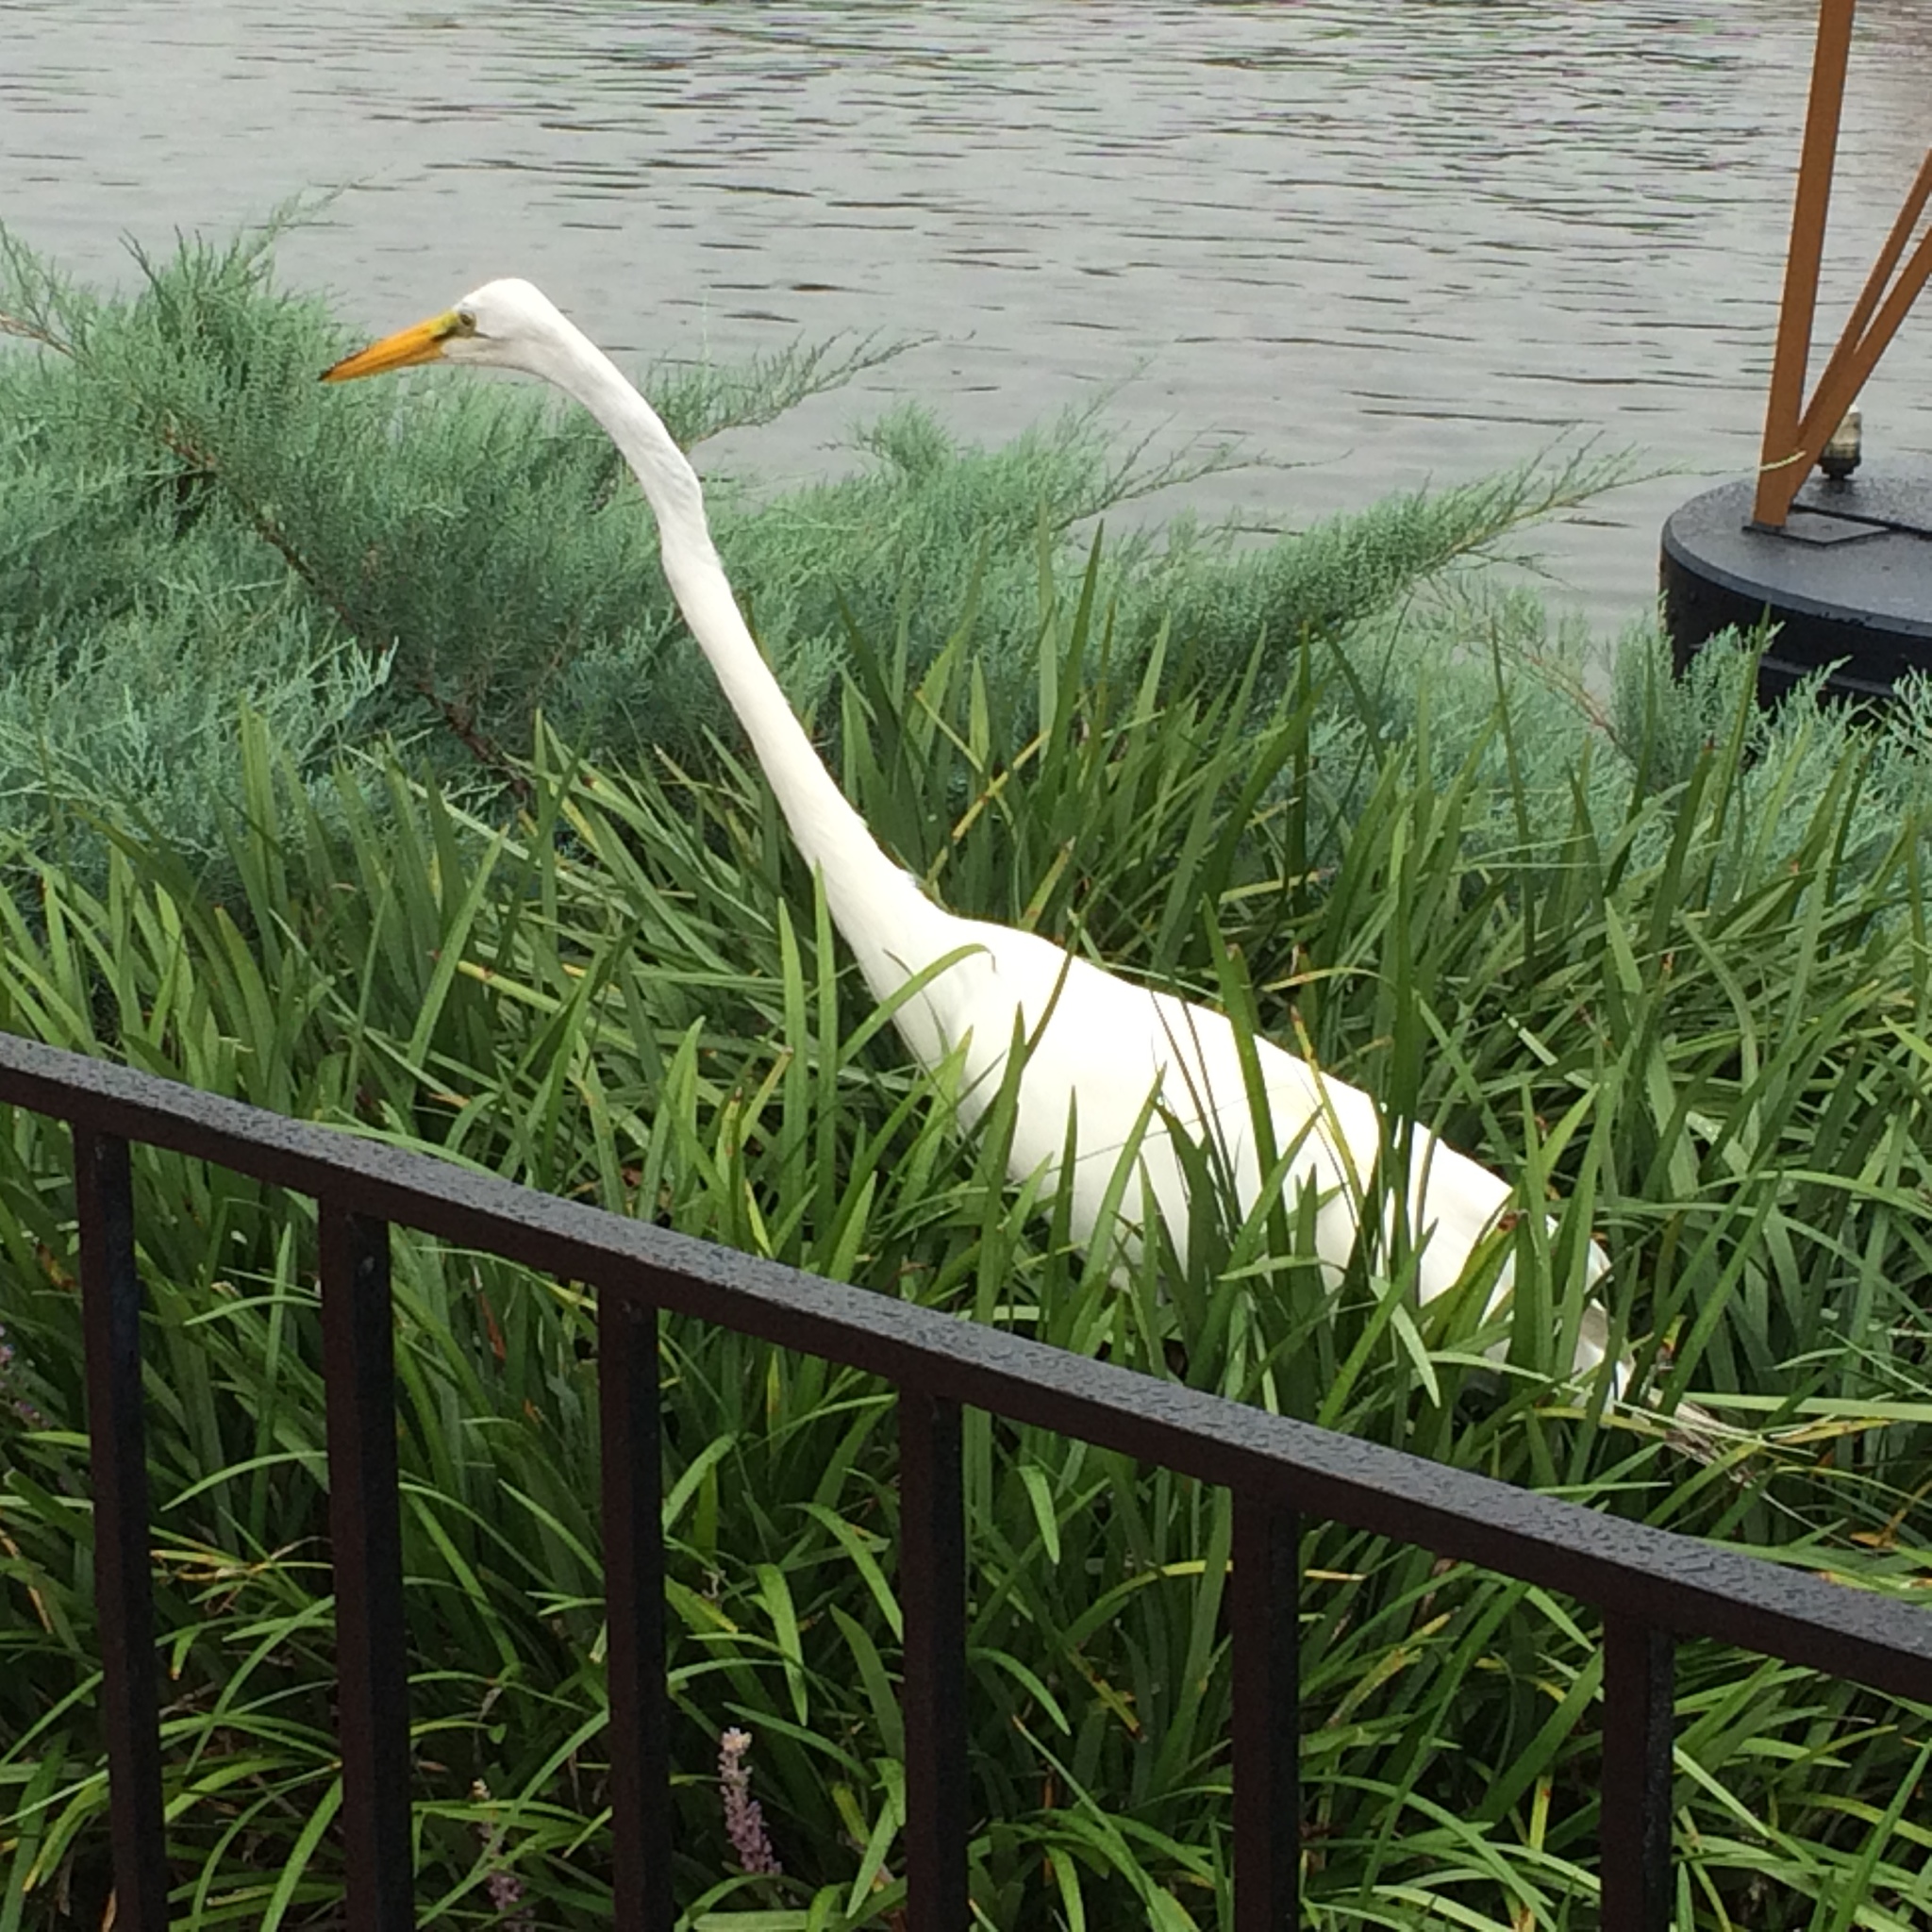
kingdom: Animalia
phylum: Chordata
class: Aves
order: Pelecaniformes
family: Ardeidae
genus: Ardea
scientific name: Ardea alba
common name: Great egret
